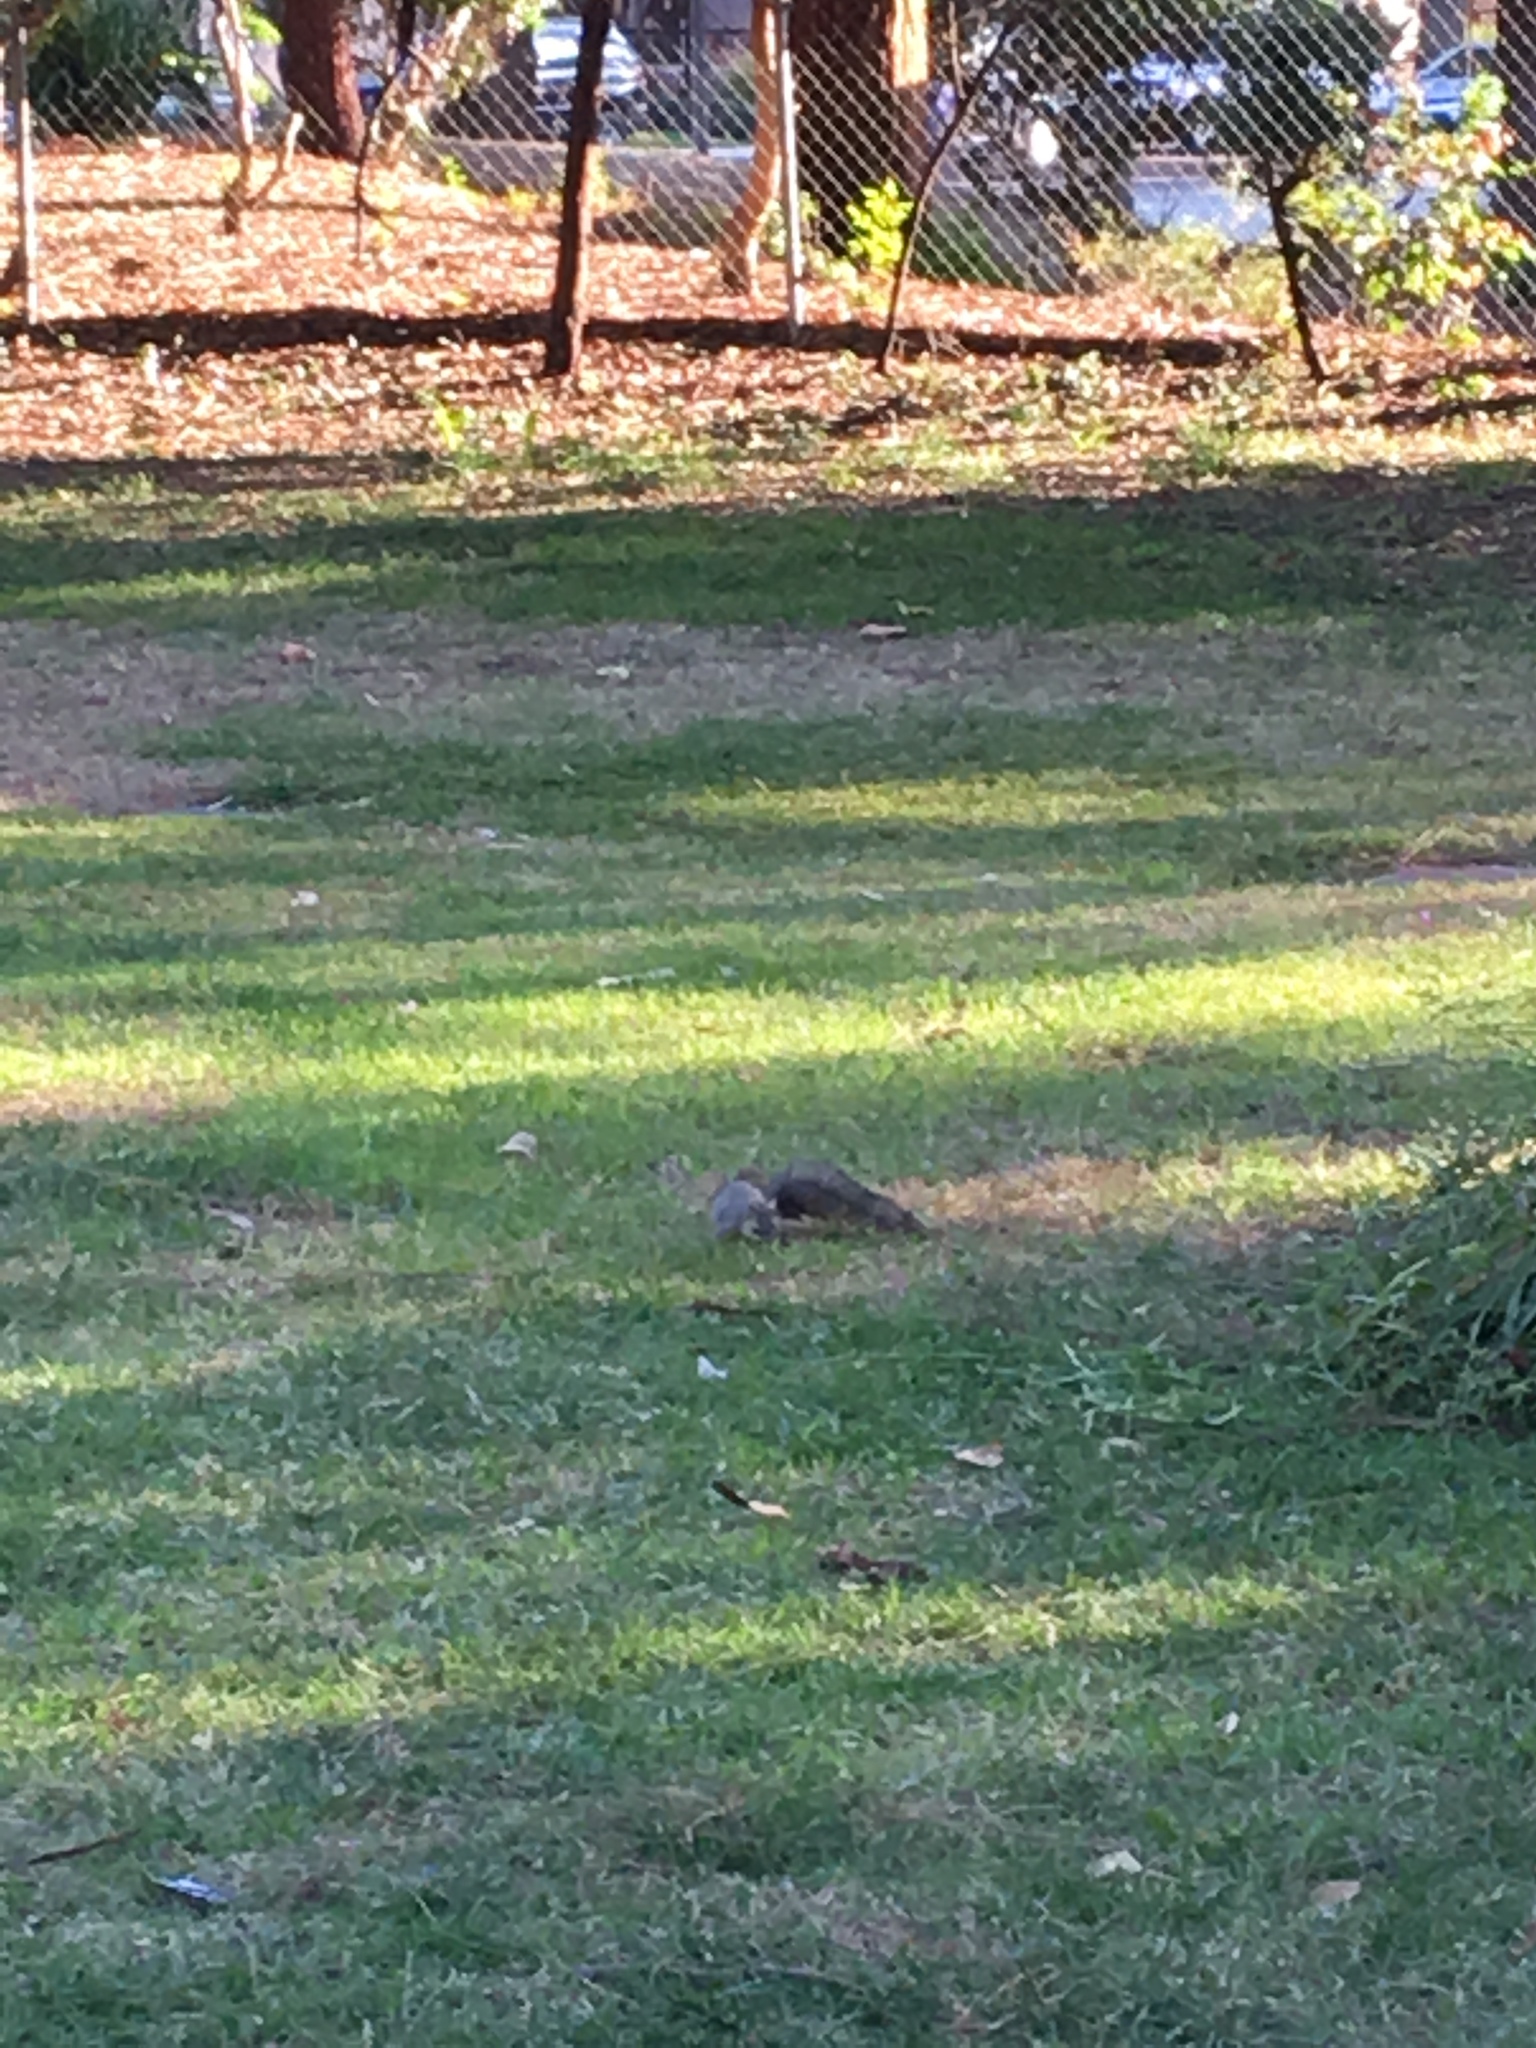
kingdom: Animalia
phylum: Chordata
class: Mammalia
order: Rodentia
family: Sciuridae
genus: Sciurus
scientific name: Sciurus niger
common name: Fox squirrel
